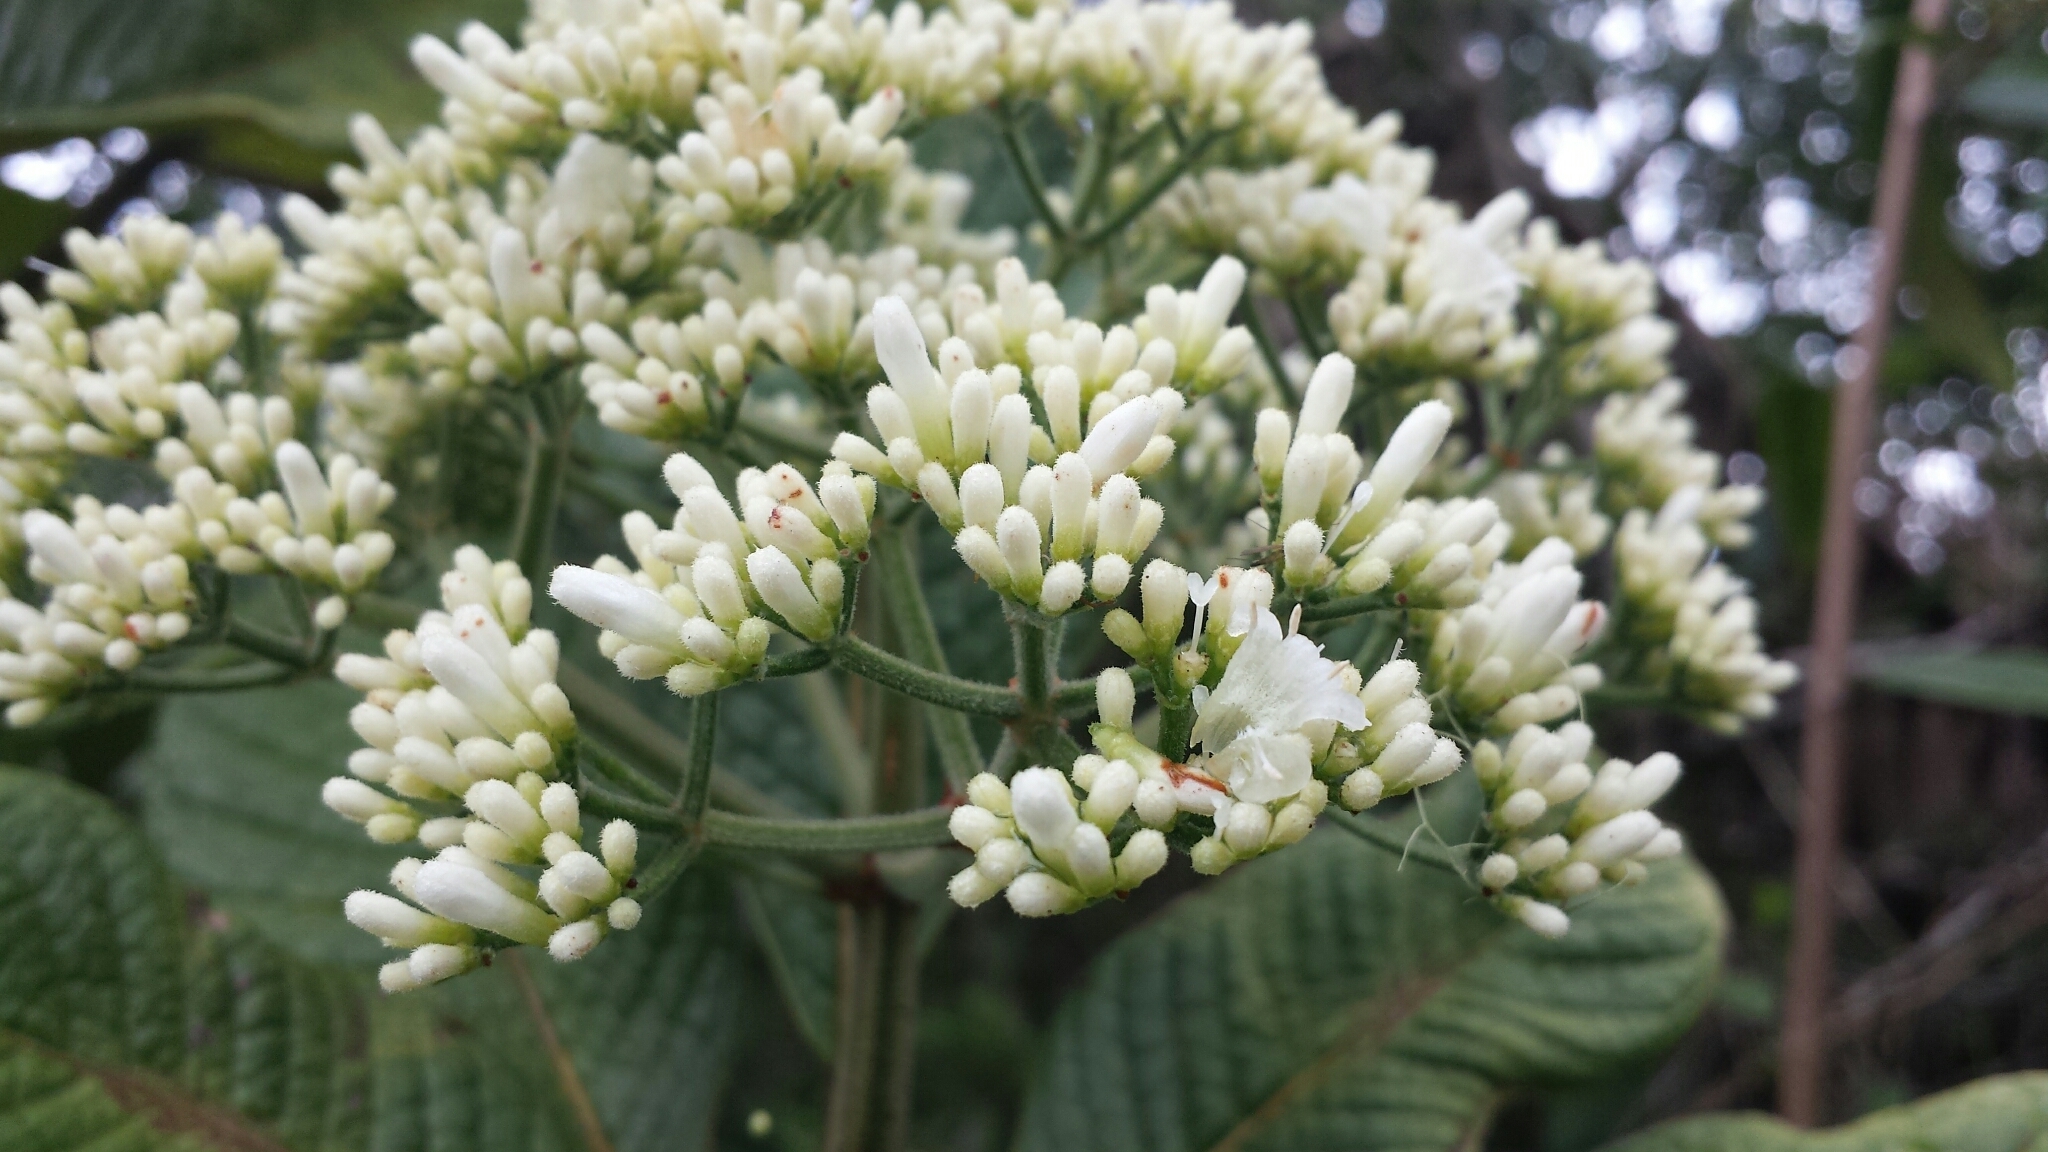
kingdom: Plantae
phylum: Tracheophyta
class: Magnoliopsida
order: Gentianales
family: Rubiaceae
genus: Psychotria
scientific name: Psychotria bullulata
